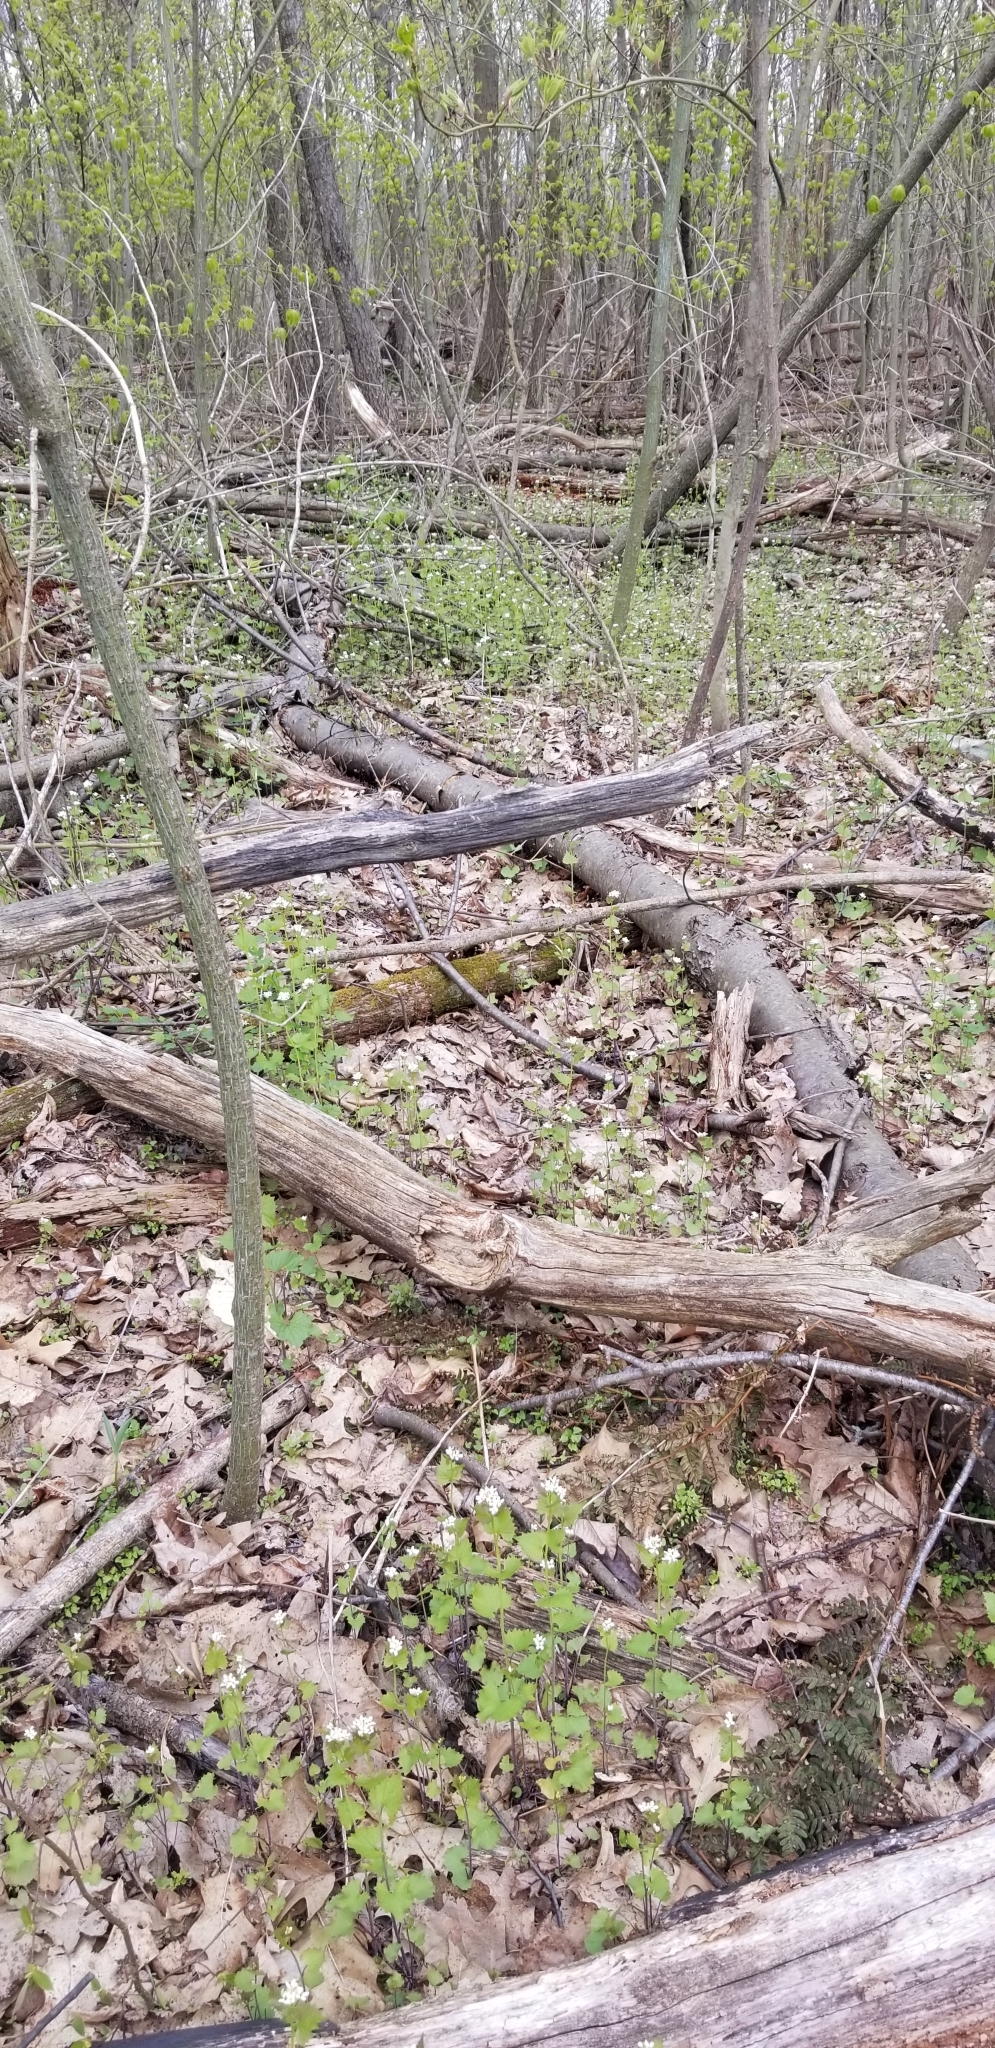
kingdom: Plantae
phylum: Tracheophyta
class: Magnoliopsida
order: Brassicales
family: Brassicaceae
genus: Alliaria
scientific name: Alliaria petiolata
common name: Garlic mustard
